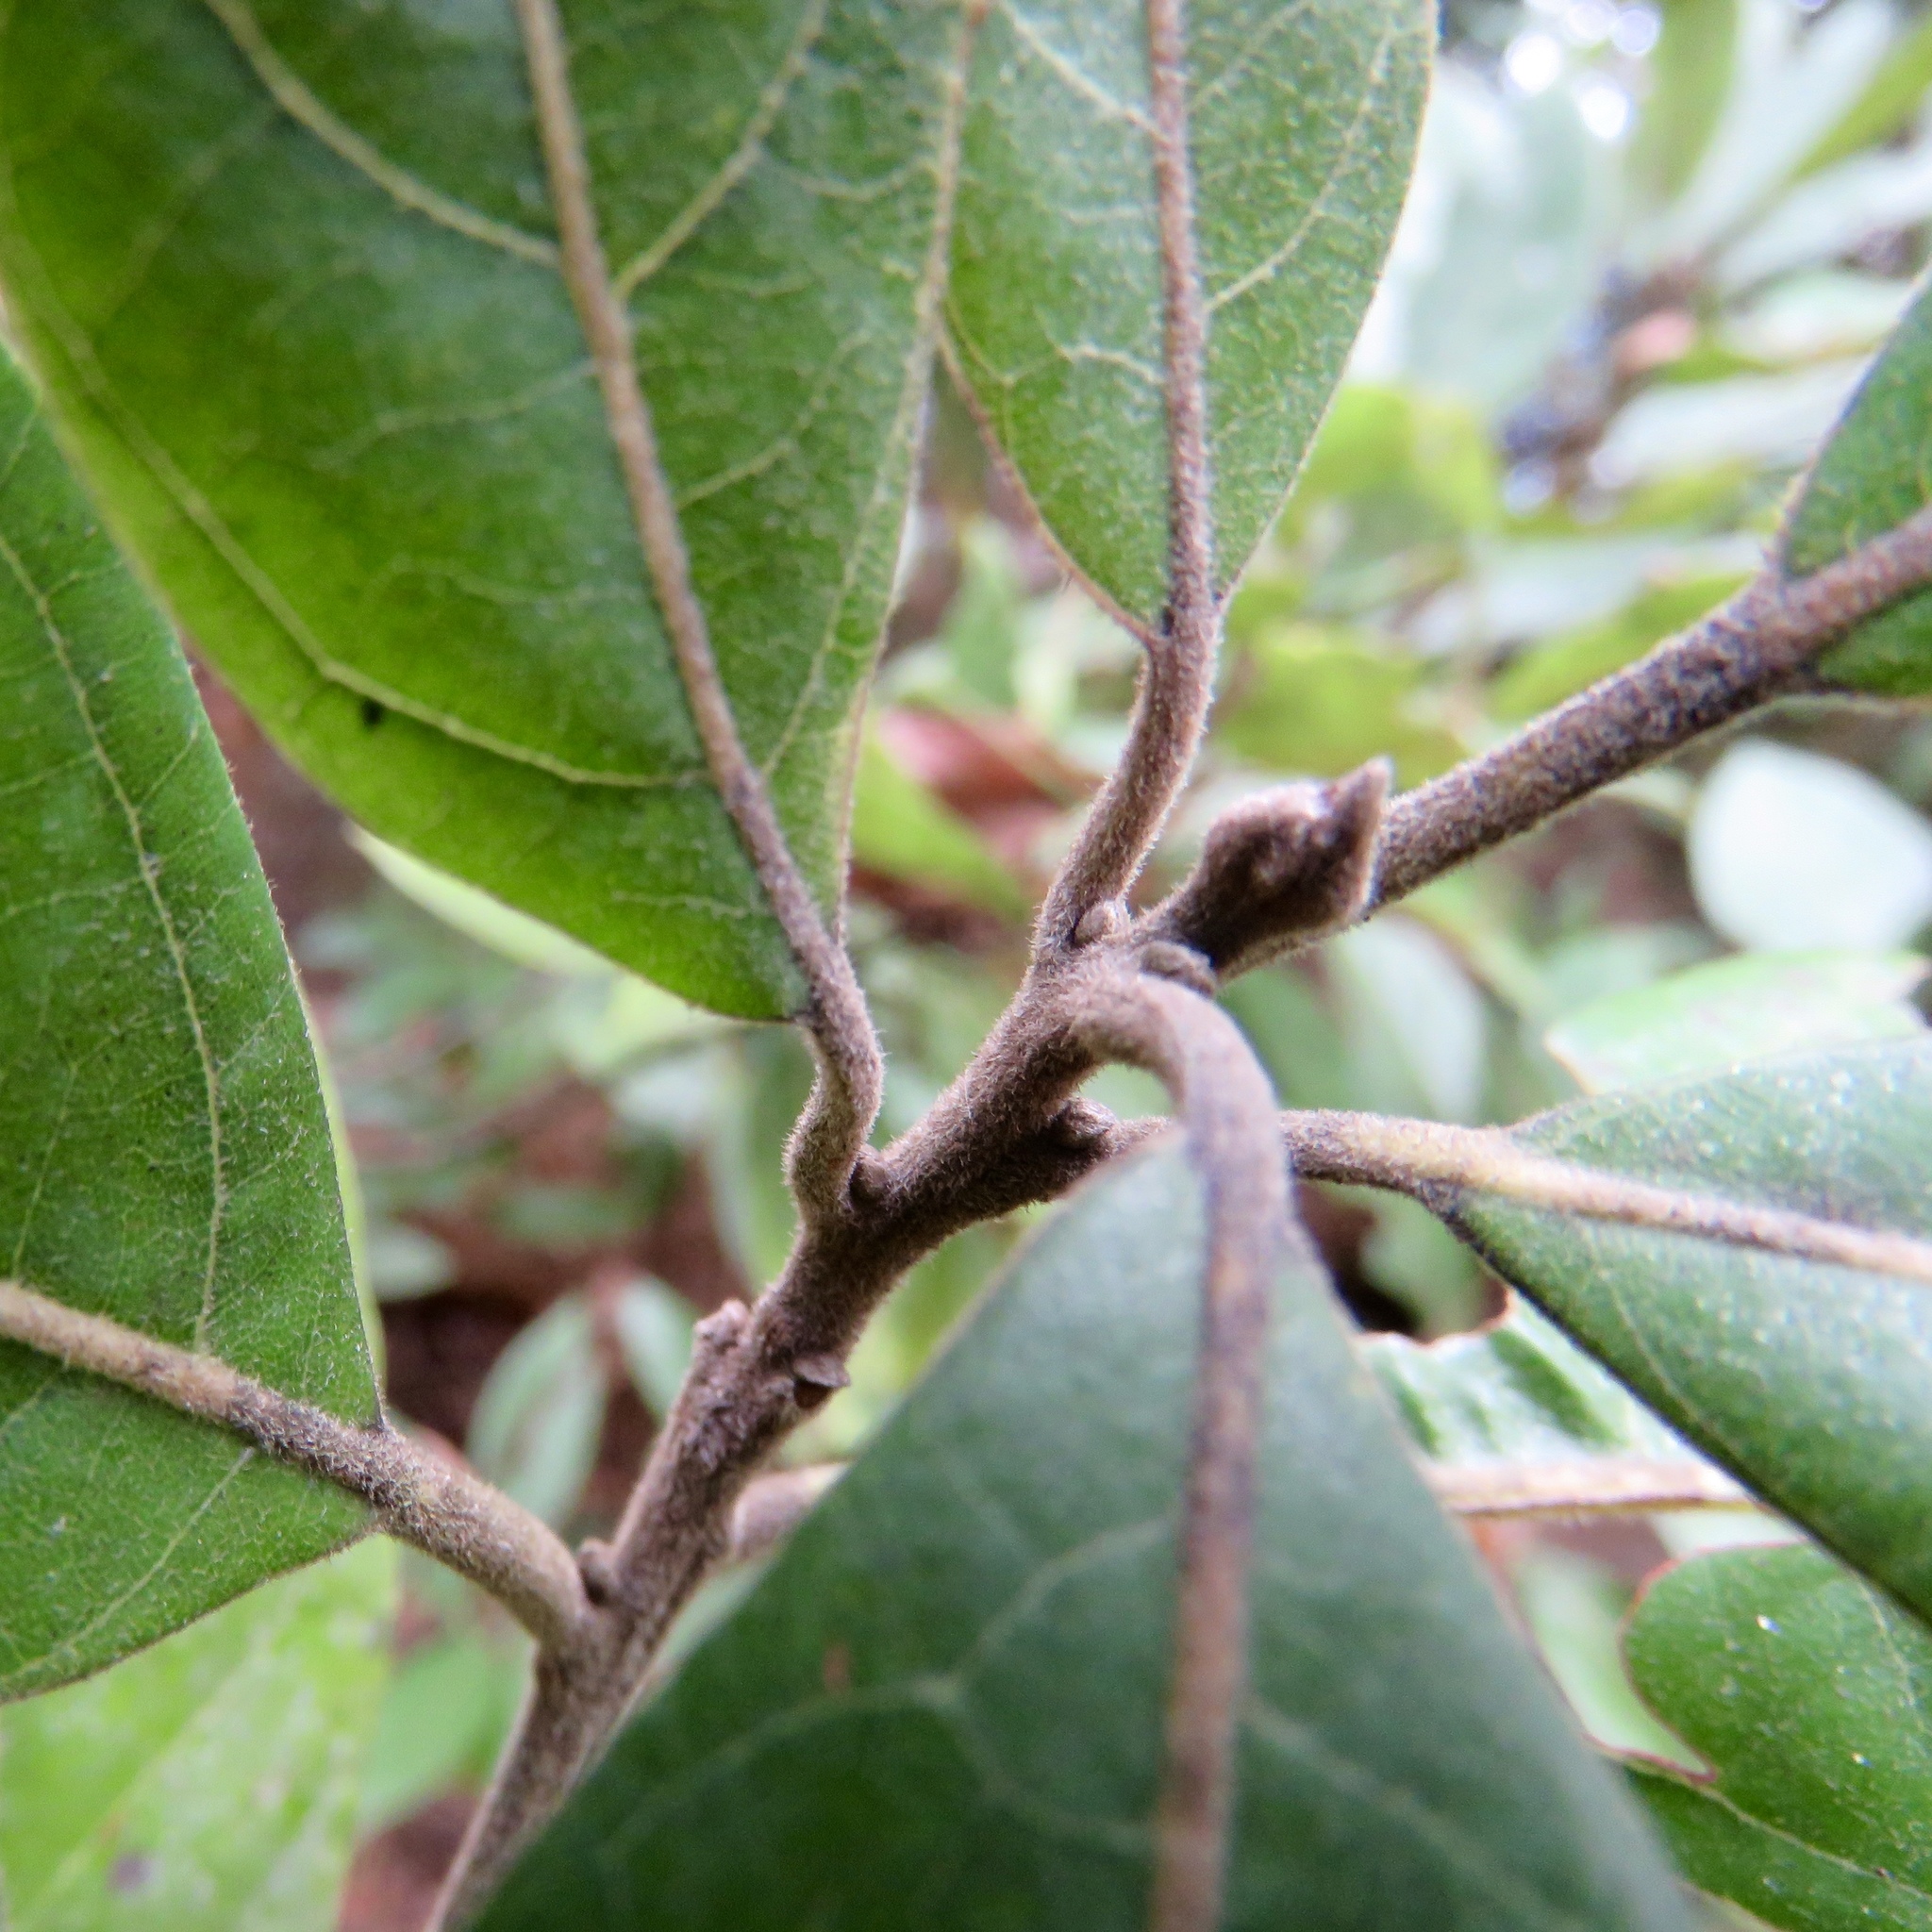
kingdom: Plantae
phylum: Tracheophyta
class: Magnoliopsida
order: Laurales
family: Lauraceae
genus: Persea
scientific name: Persea palustris
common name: Swampbay
